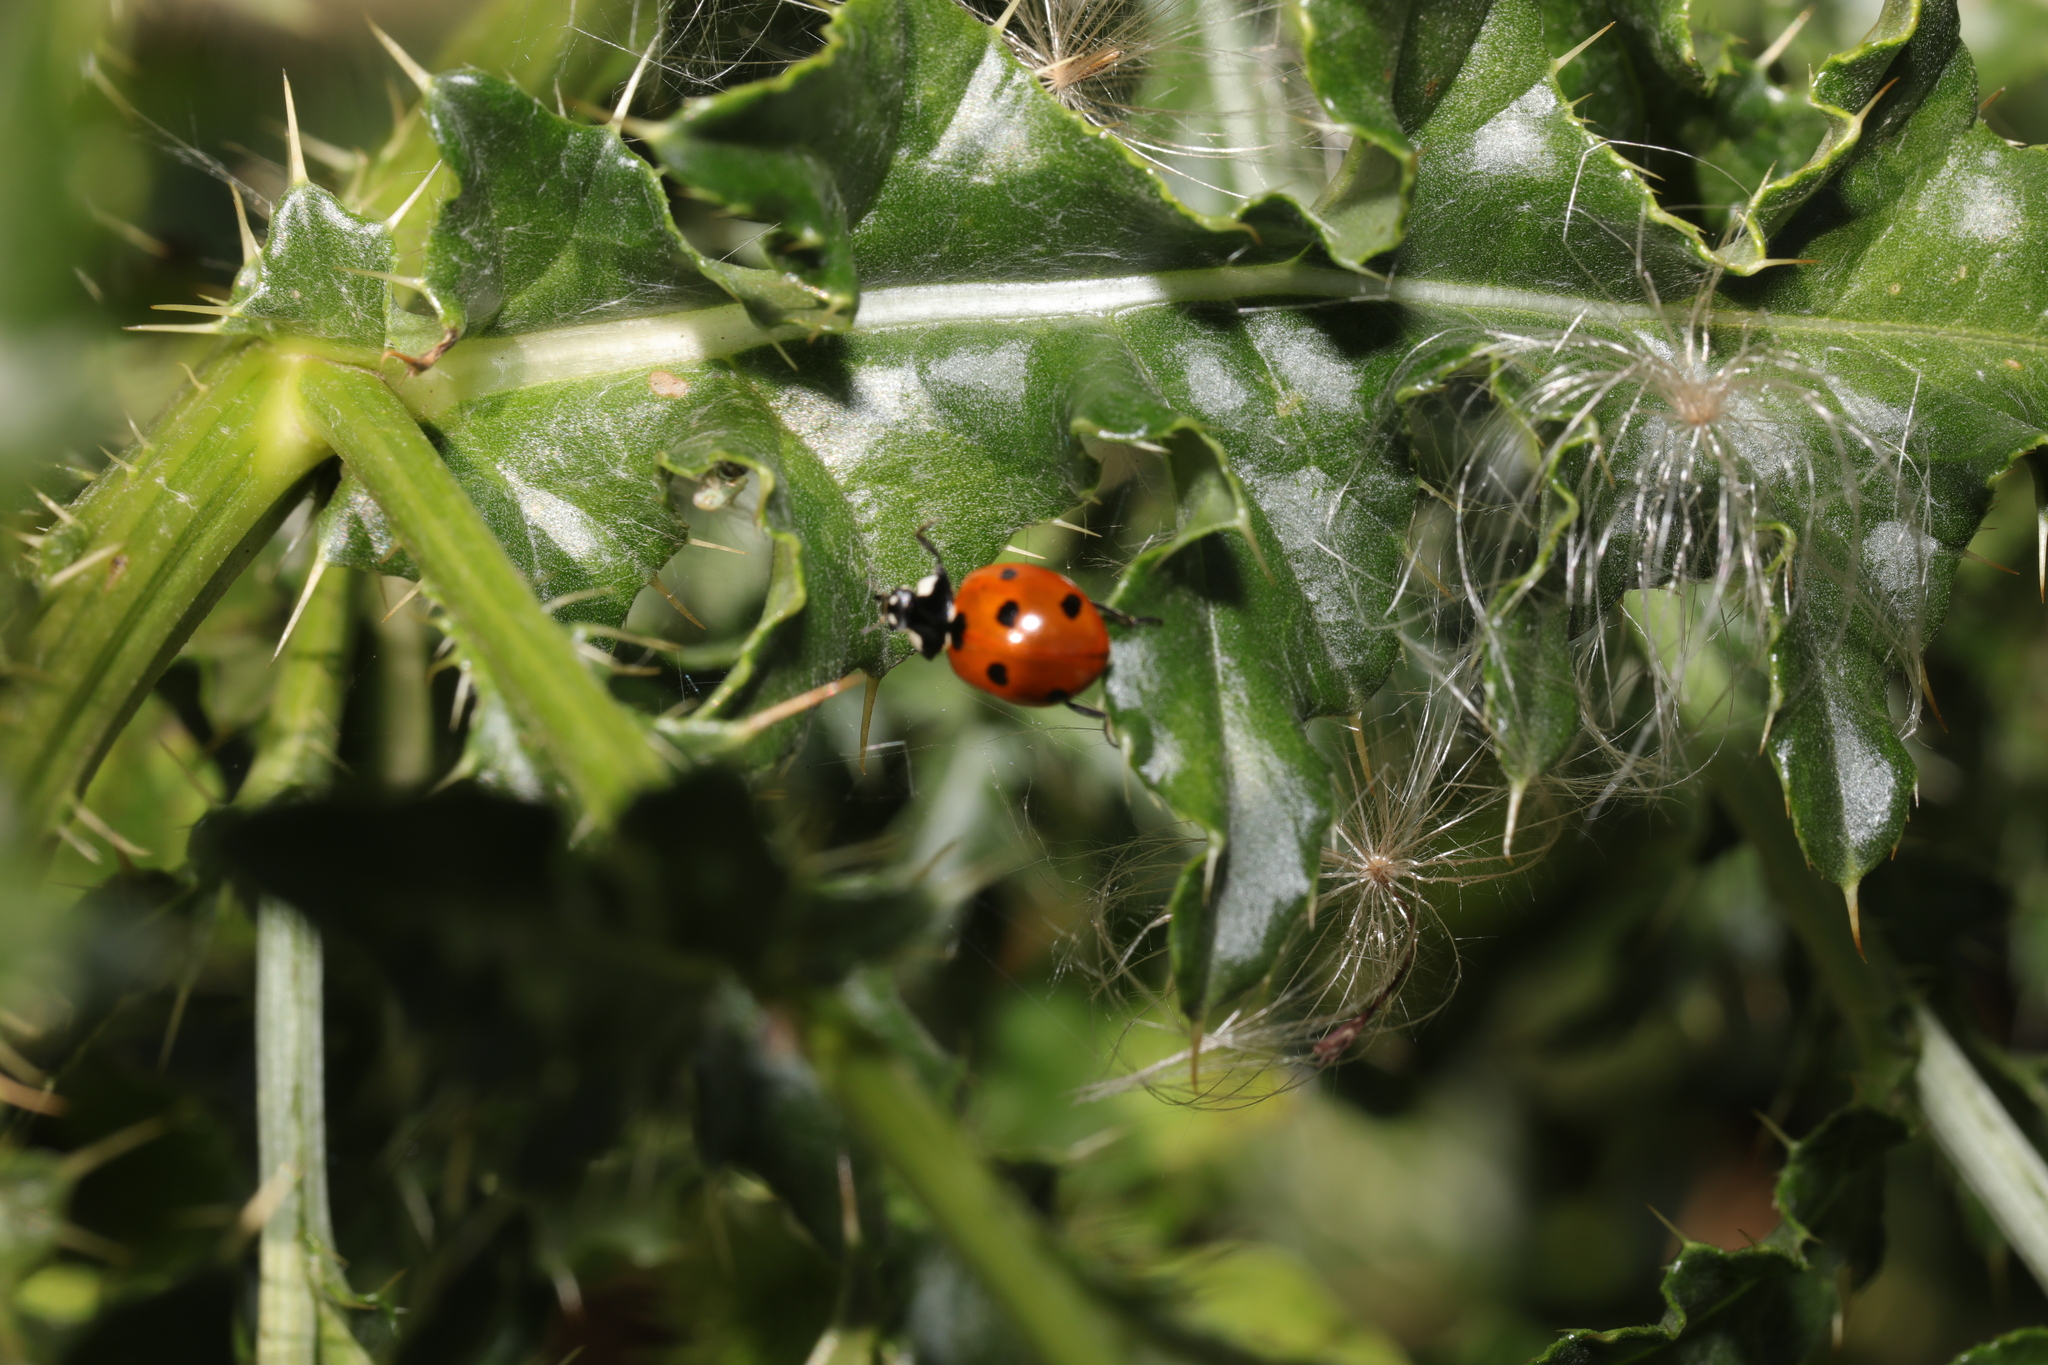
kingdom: Animalia
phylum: Arthropoda
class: Insecta
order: Coleoptera
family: Coccinellidae
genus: Coccinella
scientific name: Coccinella septempunctata
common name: Sevenspotted lady beetle
